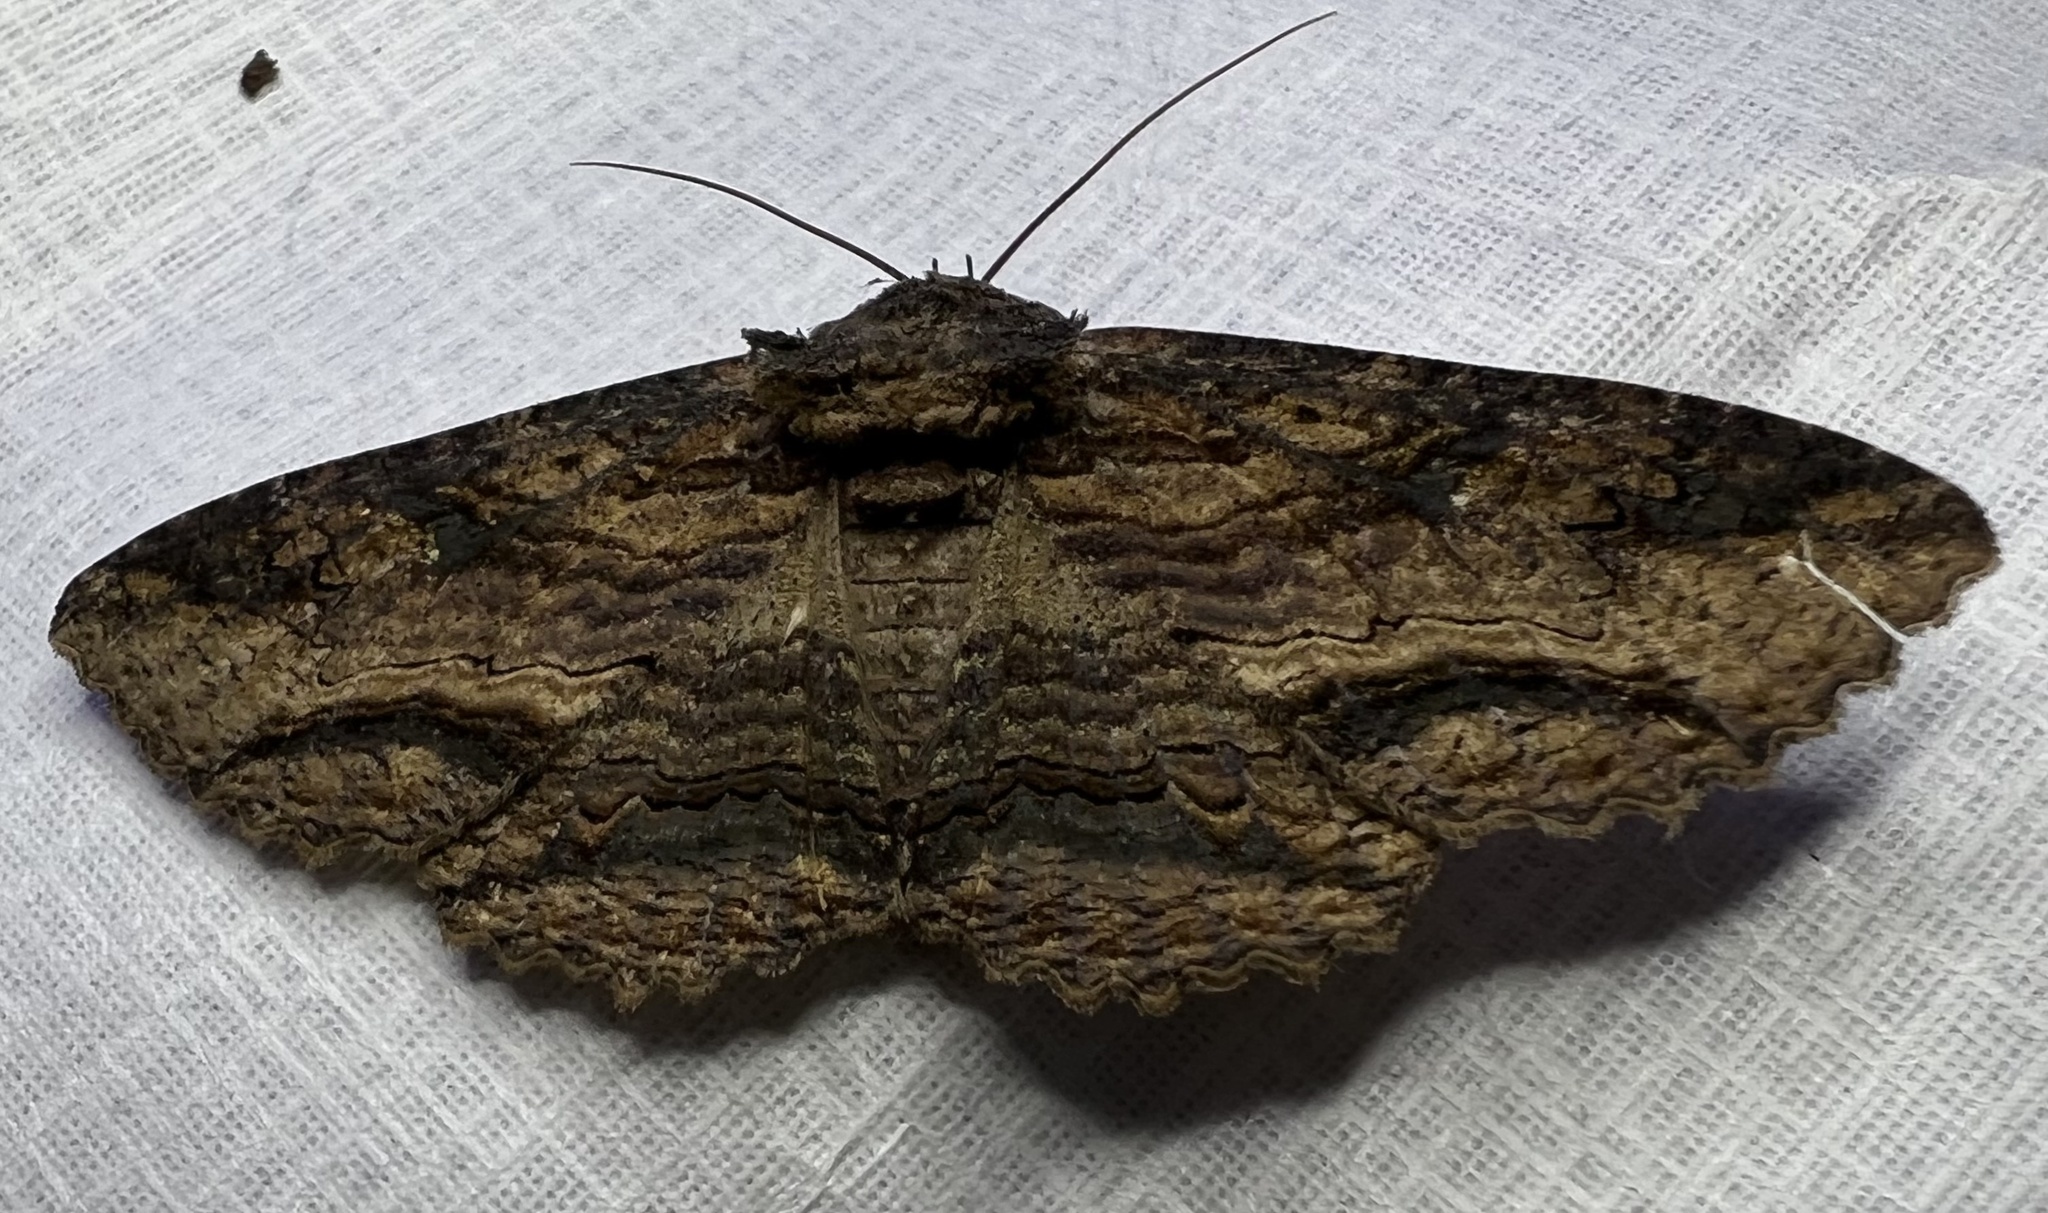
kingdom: Animalia
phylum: Arthropoda
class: Insecta
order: Lepidoptera
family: Erebidae
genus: Zale
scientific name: Zale lunata
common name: Lunate zale moth
